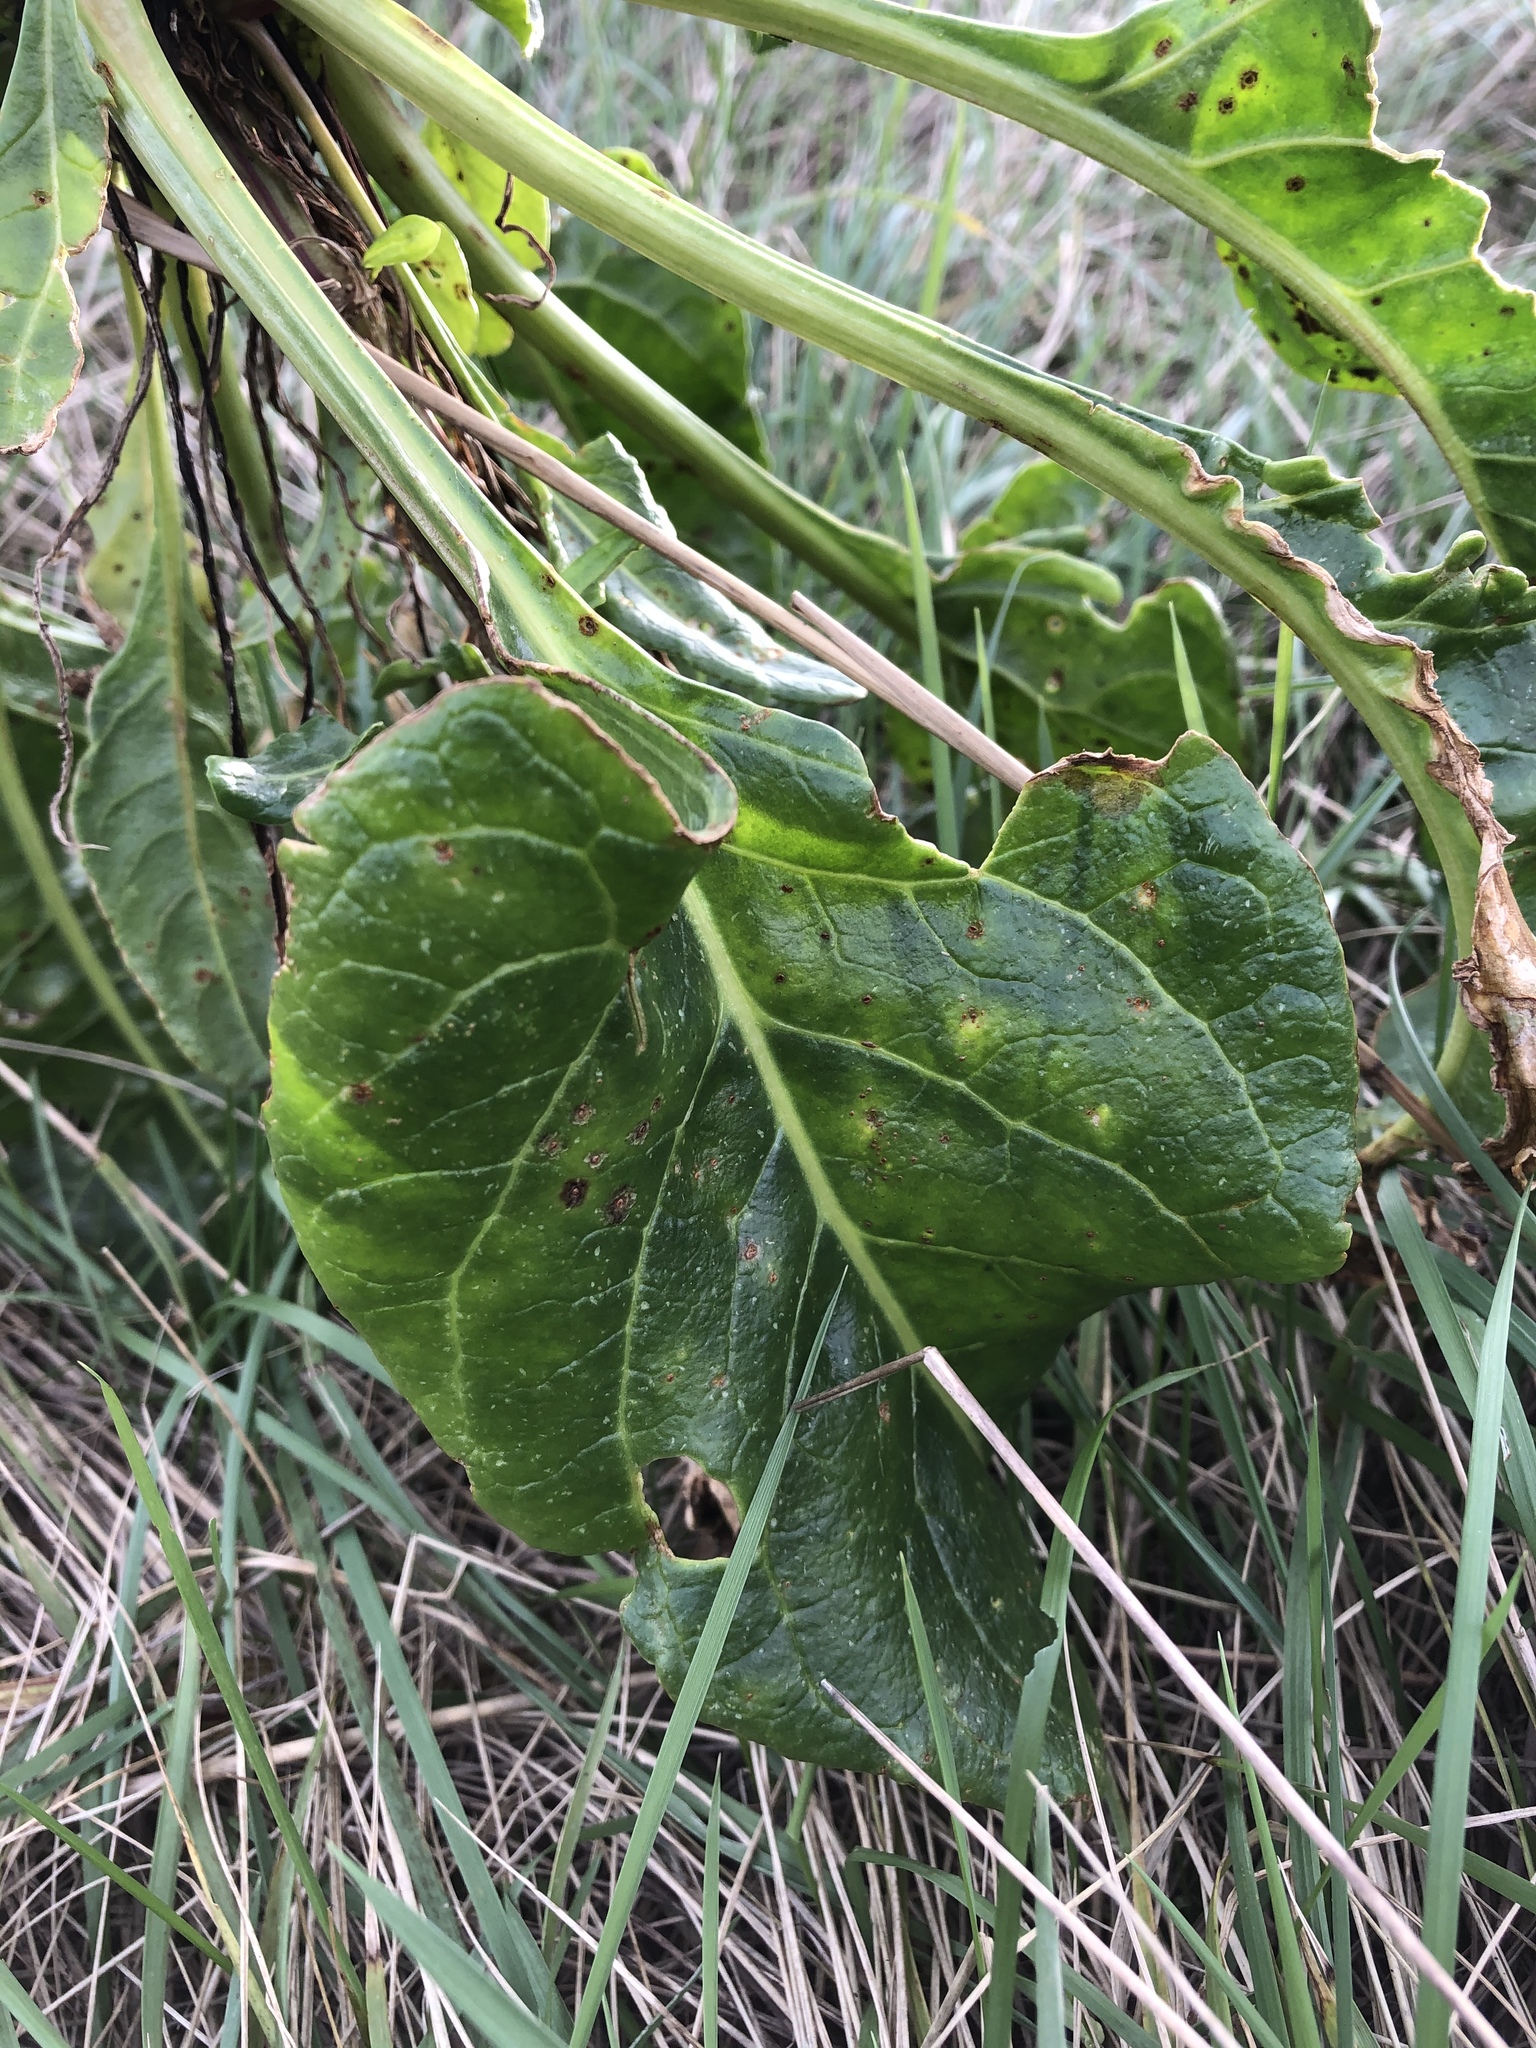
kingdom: Plantae
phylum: Tracheophyta
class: Magnoliopsida
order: Caryophyllales
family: Amaranthaceae
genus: Beta
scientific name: Beta vulgaris
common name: Beet
